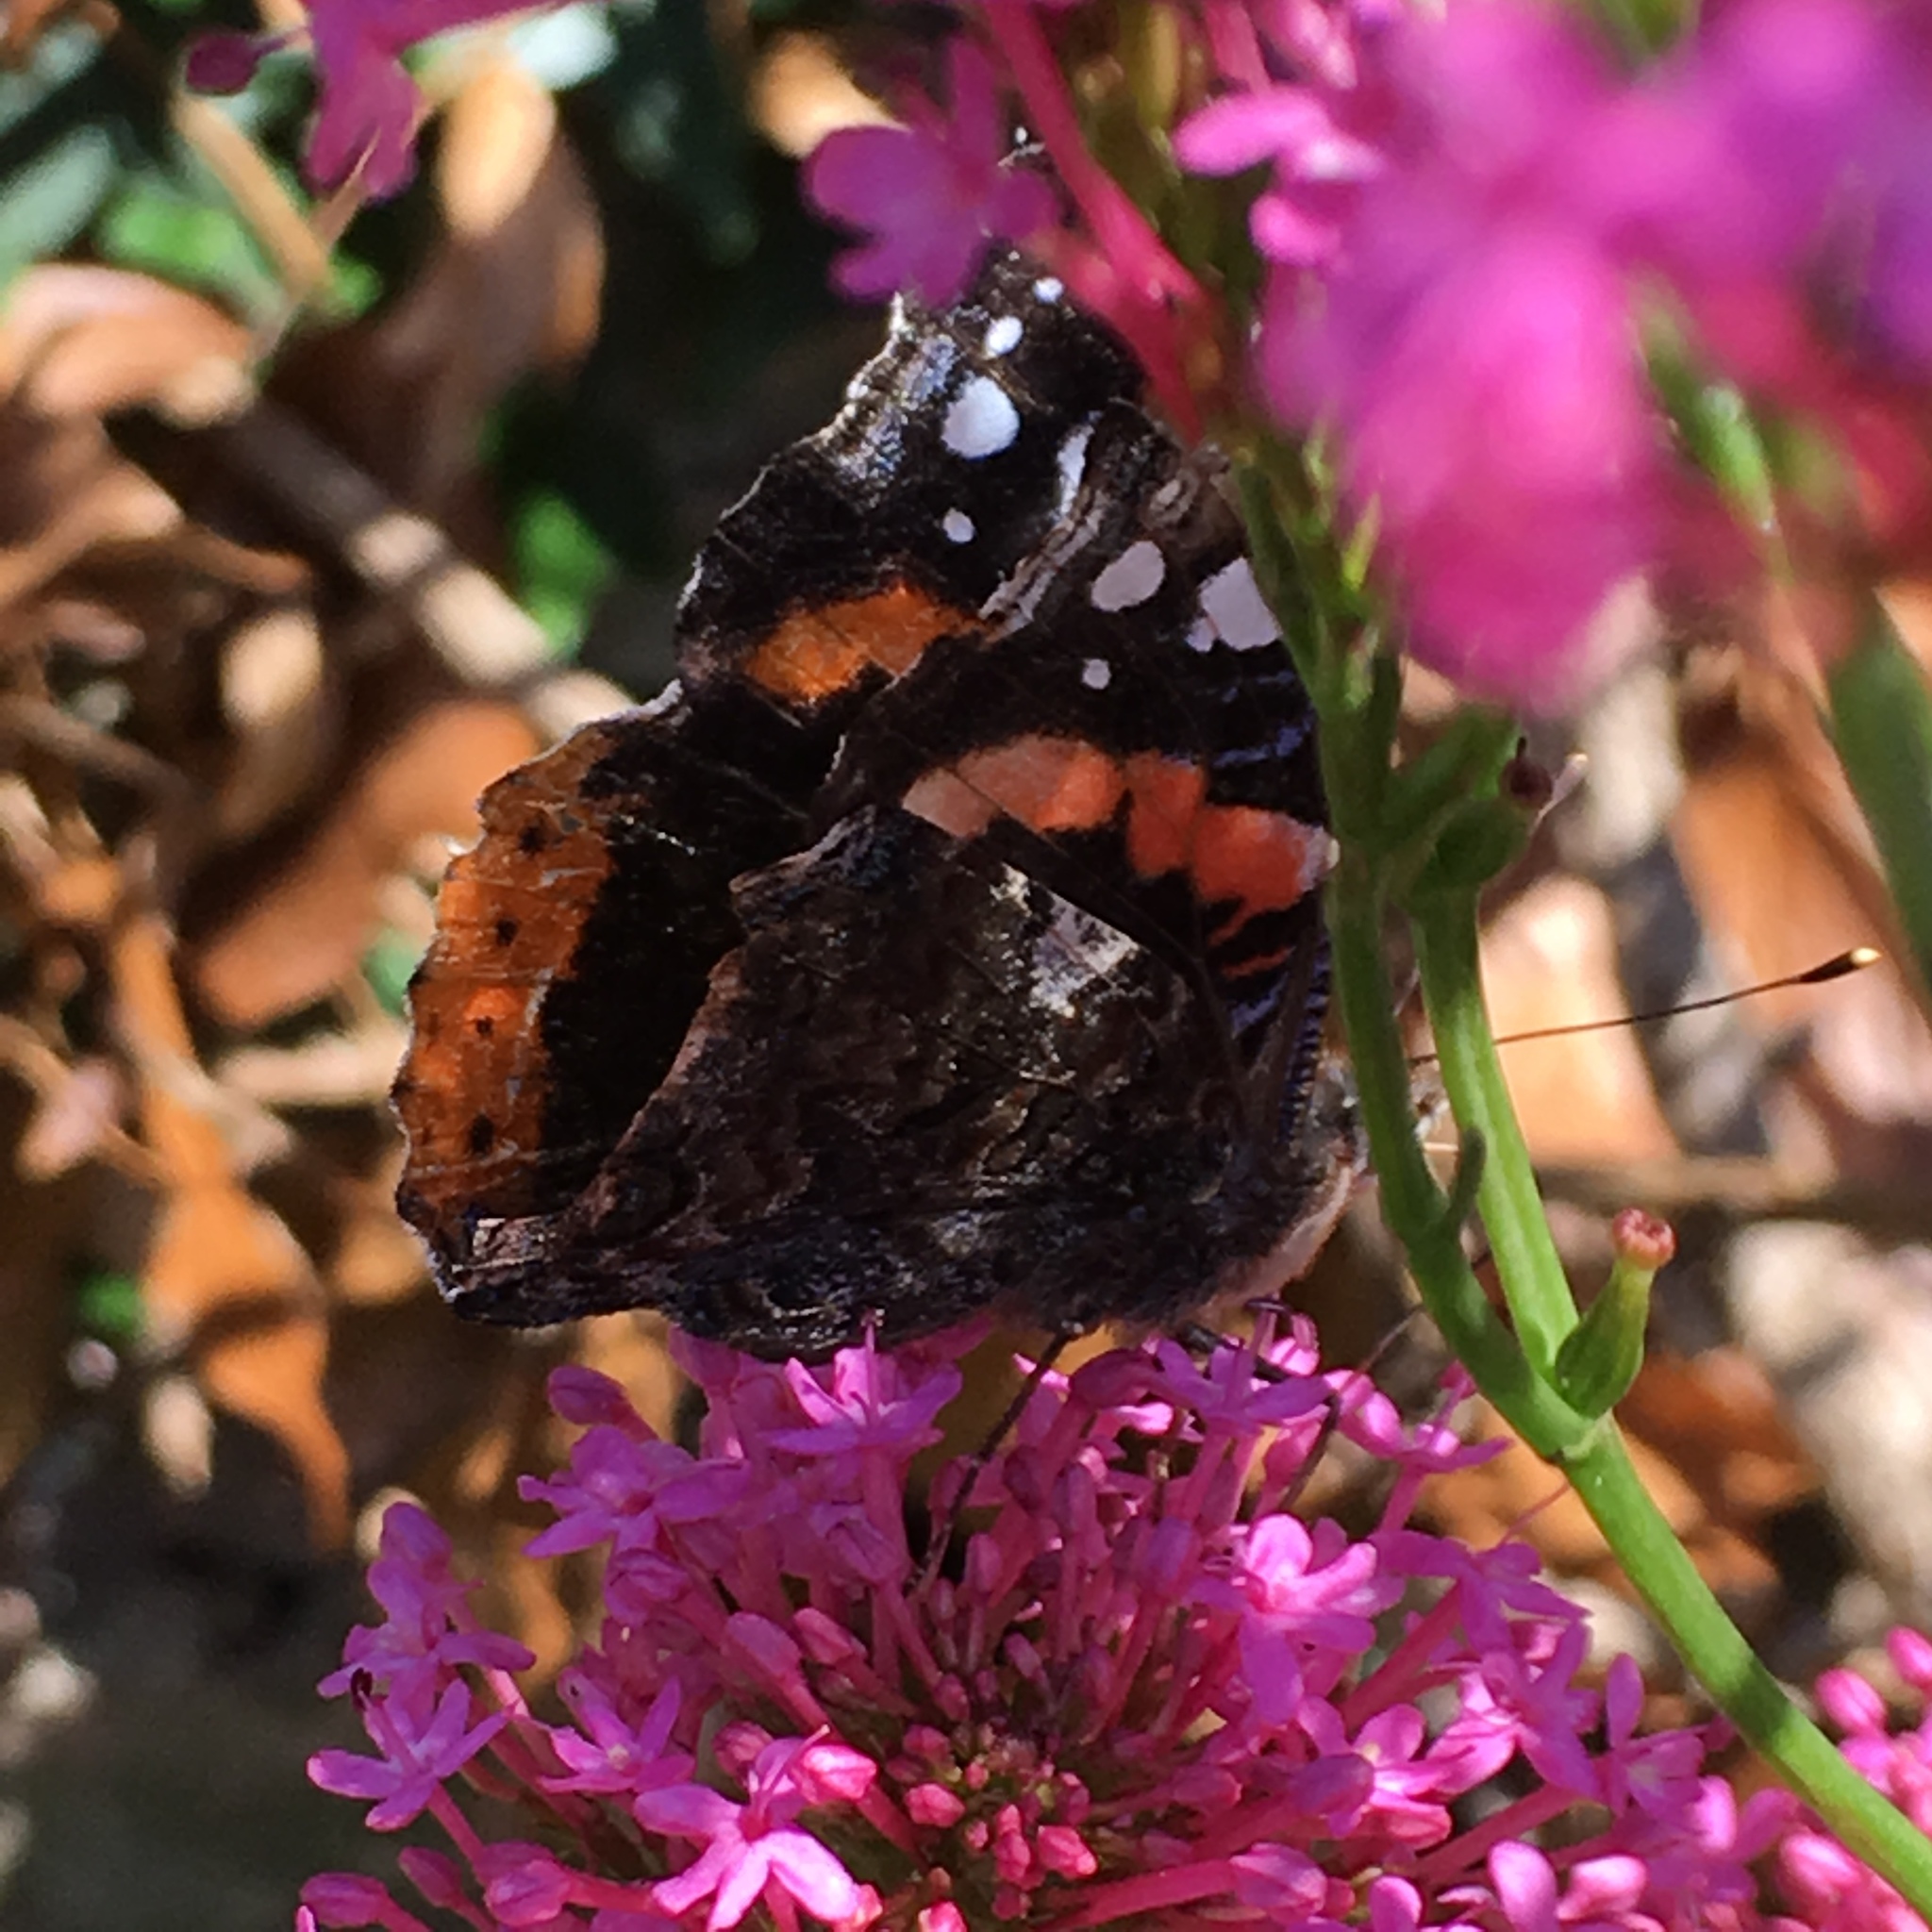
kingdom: Animalia
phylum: Arthropoda
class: Insecta
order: Lepidoptera
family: Nymphalidae
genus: Vanessa
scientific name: Vanessa atalanta
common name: Red admiral
